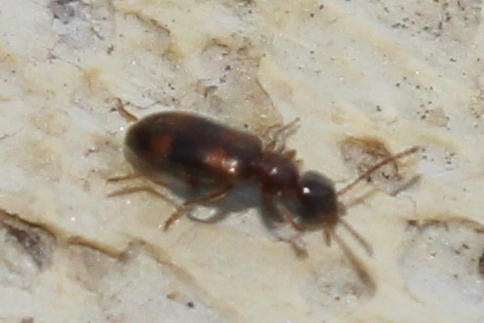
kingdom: Animalia
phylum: Arthropoda
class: Insecta
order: Coleoptera
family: Anthicidae
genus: Anthicus
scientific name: Anthicus cervinus
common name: Cloudy flower beetle
